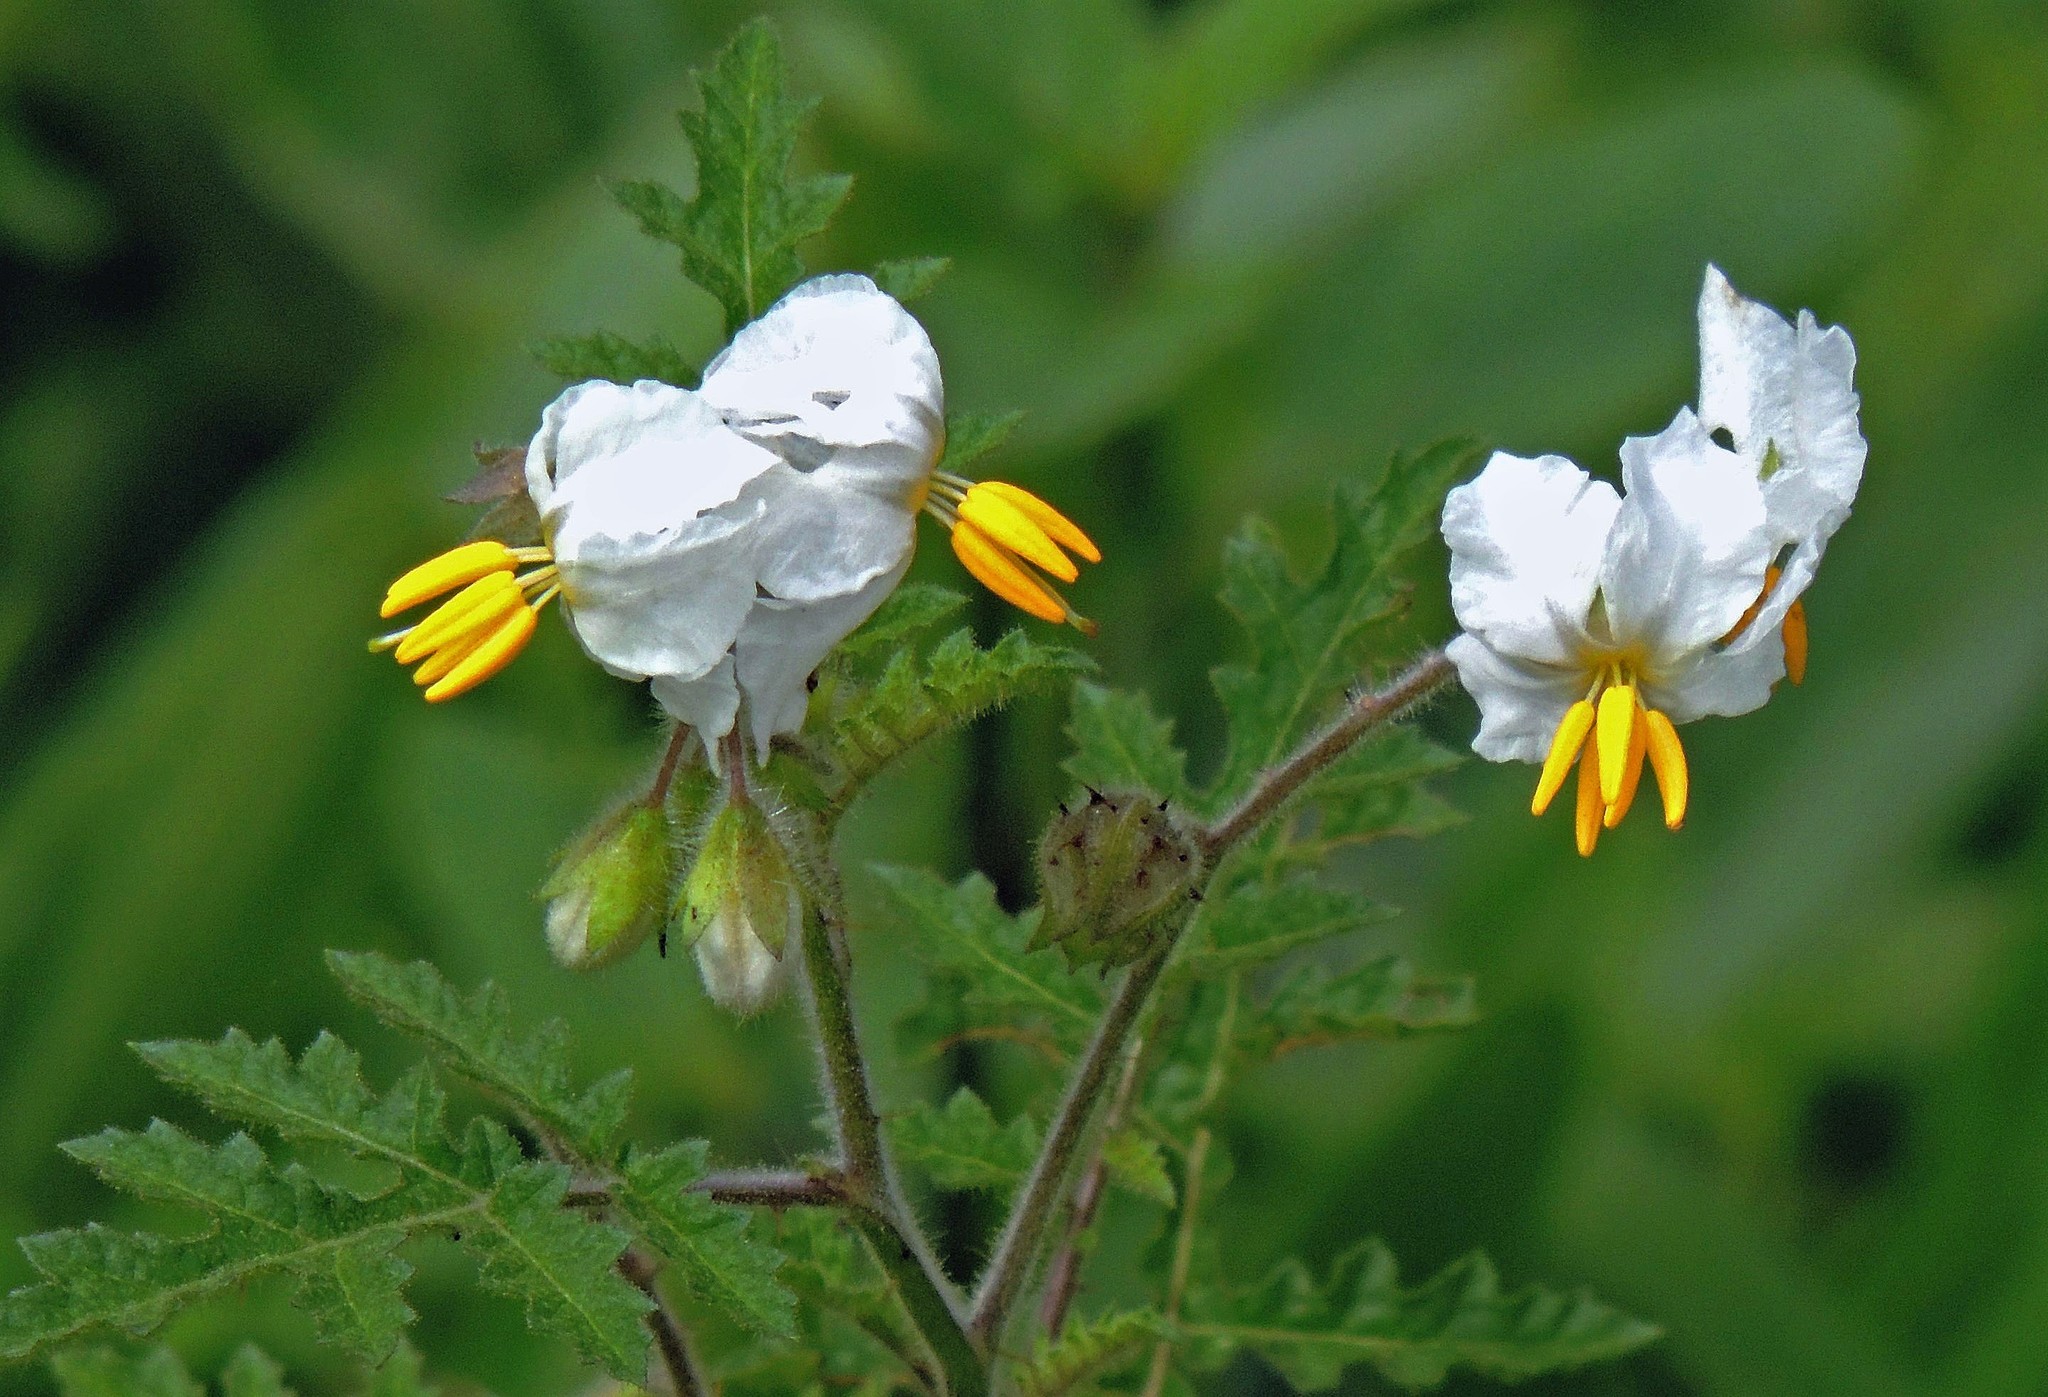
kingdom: Plantae
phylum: Tracheophyta
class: Magnoliopsida
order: Solanales
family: Solanaceae
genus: Solanum
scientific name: Solanum sisymbriifolium
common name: Red buffalo-bur
